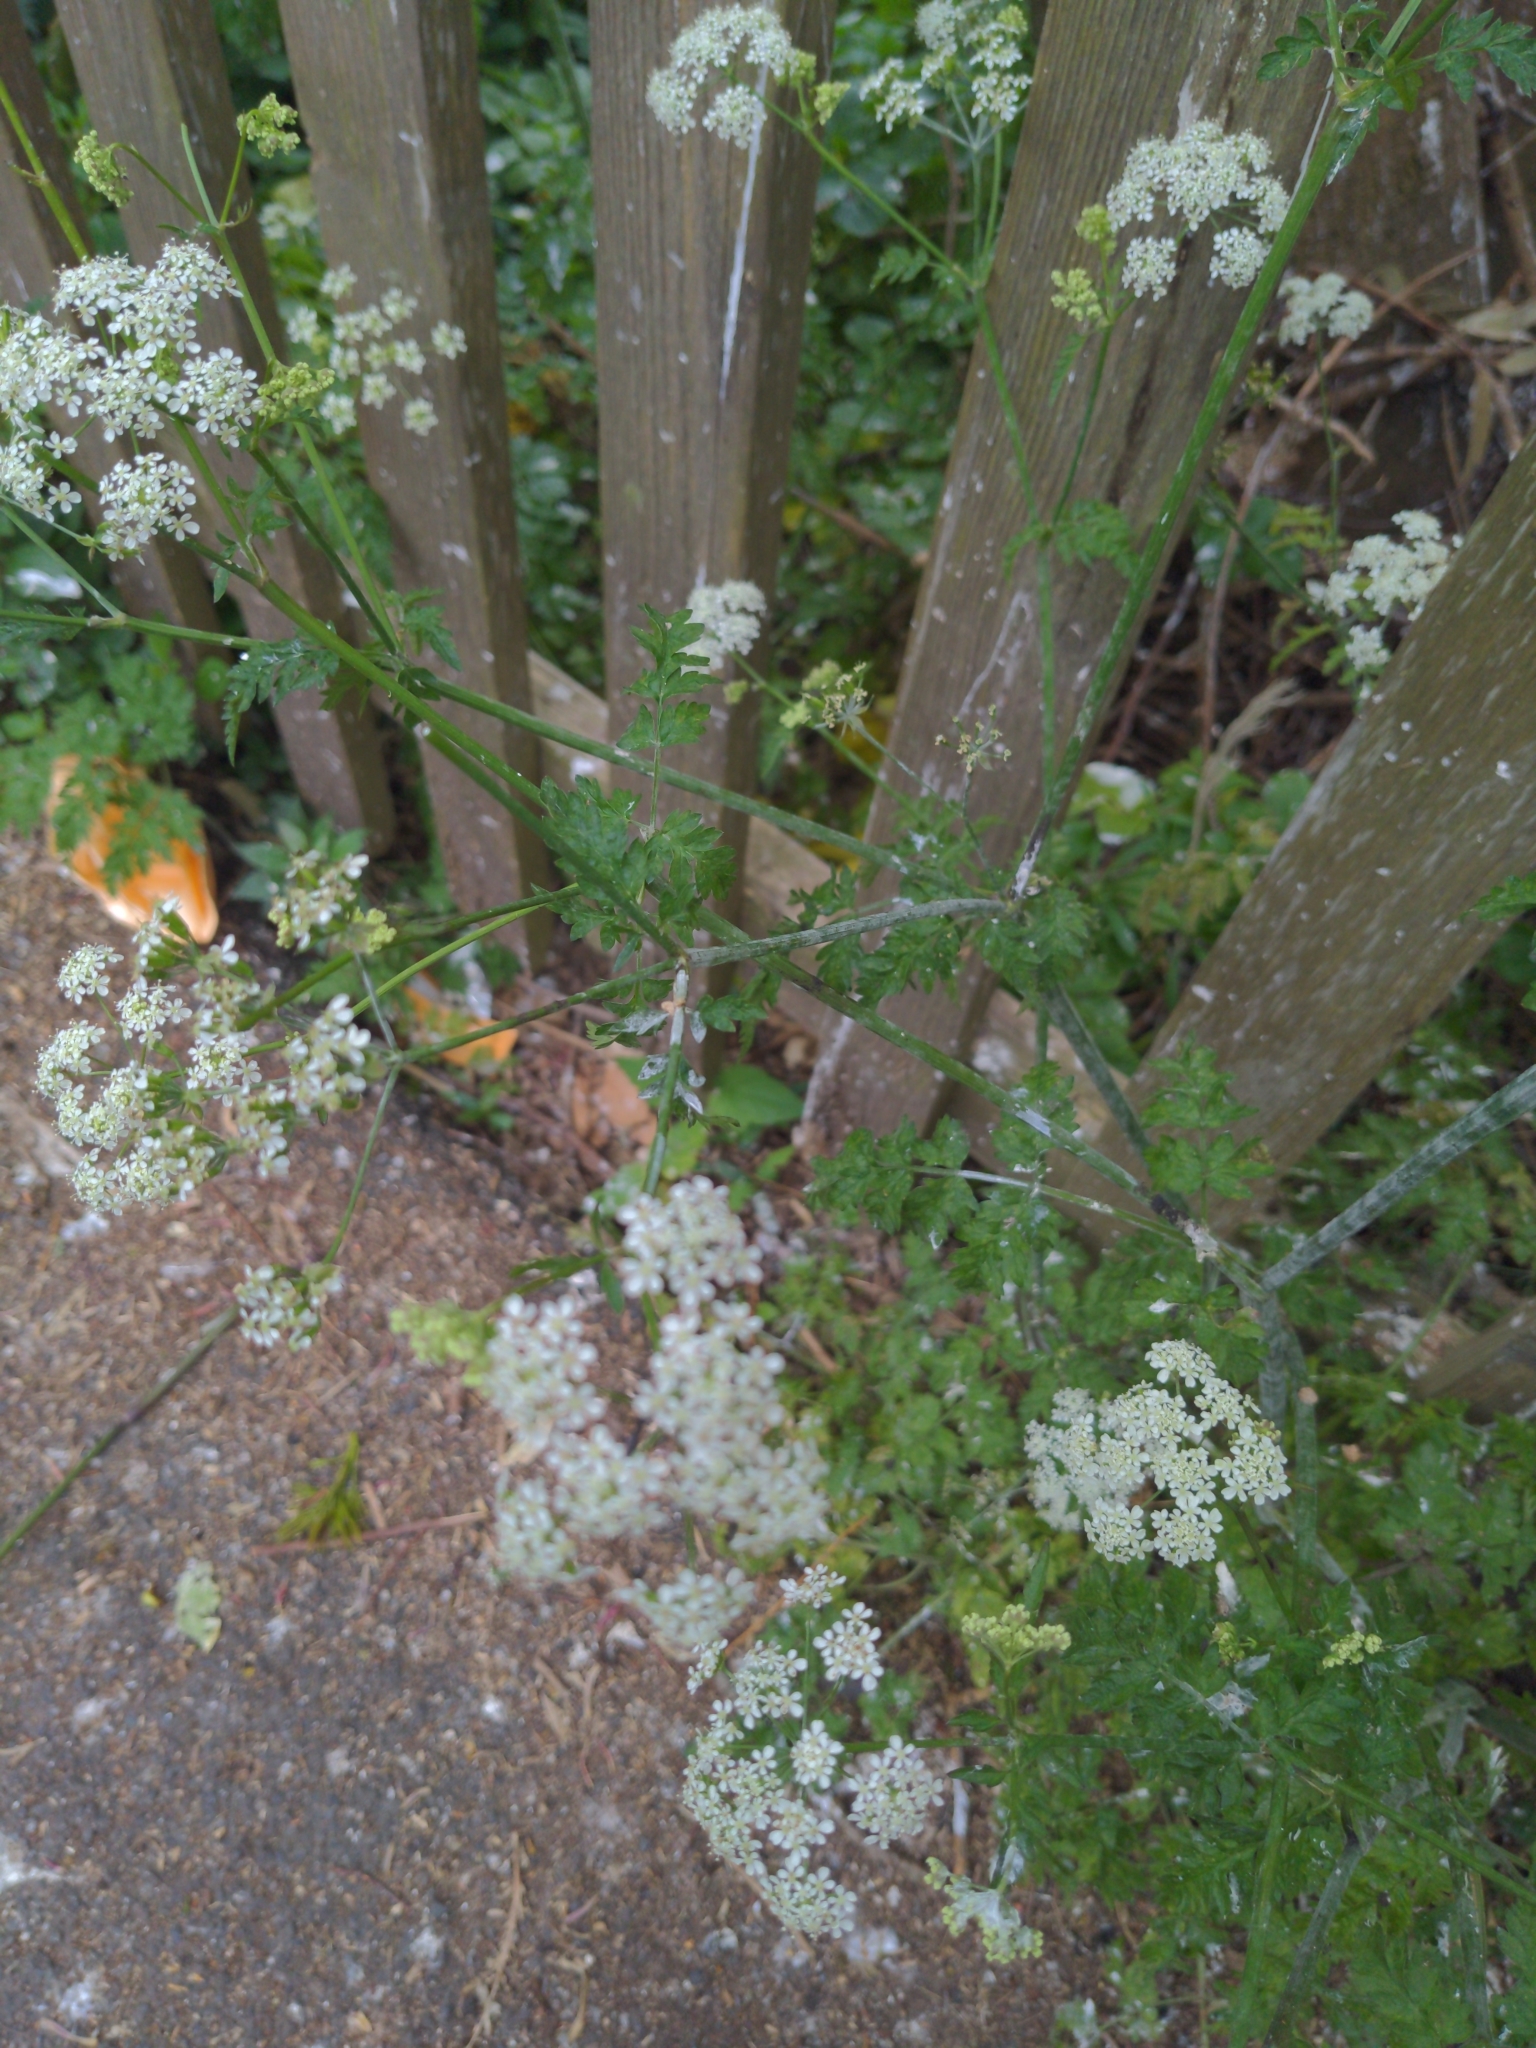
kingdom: Plantae
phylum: Tracheophyta
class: Magnoliopsida
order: Apiales
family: Apiaceae
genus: Anthriscus
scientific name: Anthriscus sylvestris
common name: Cow parsley
